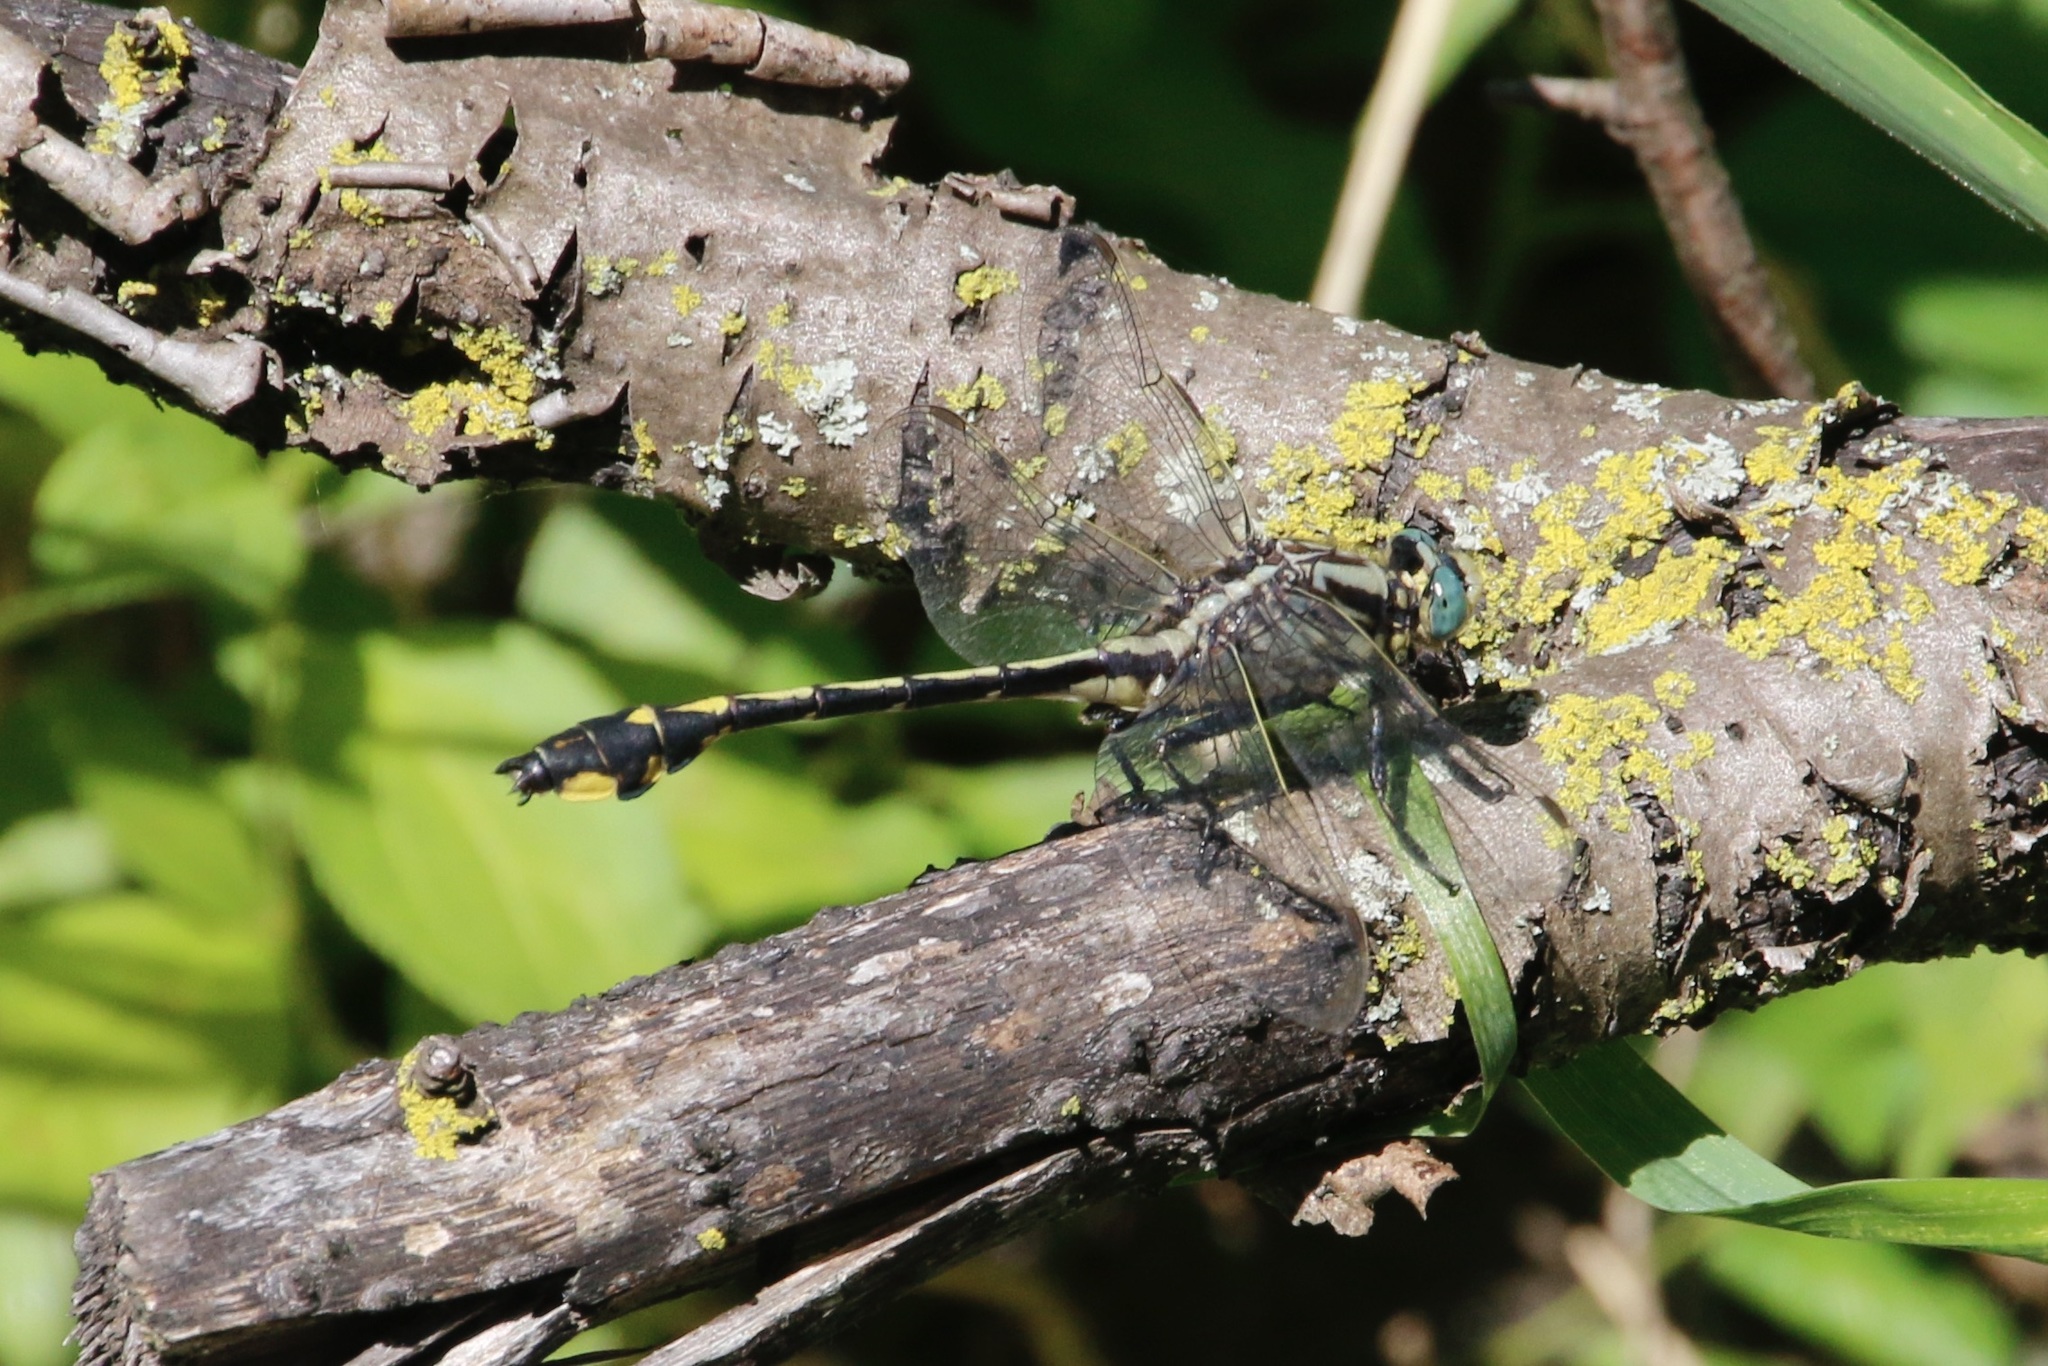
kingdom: Animalia
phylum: Arthropoda
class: Insecta
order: Odonata
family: Gomphidae
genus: Gomphurus
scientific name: Gomphurus fraternus
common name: Midland clubtail
